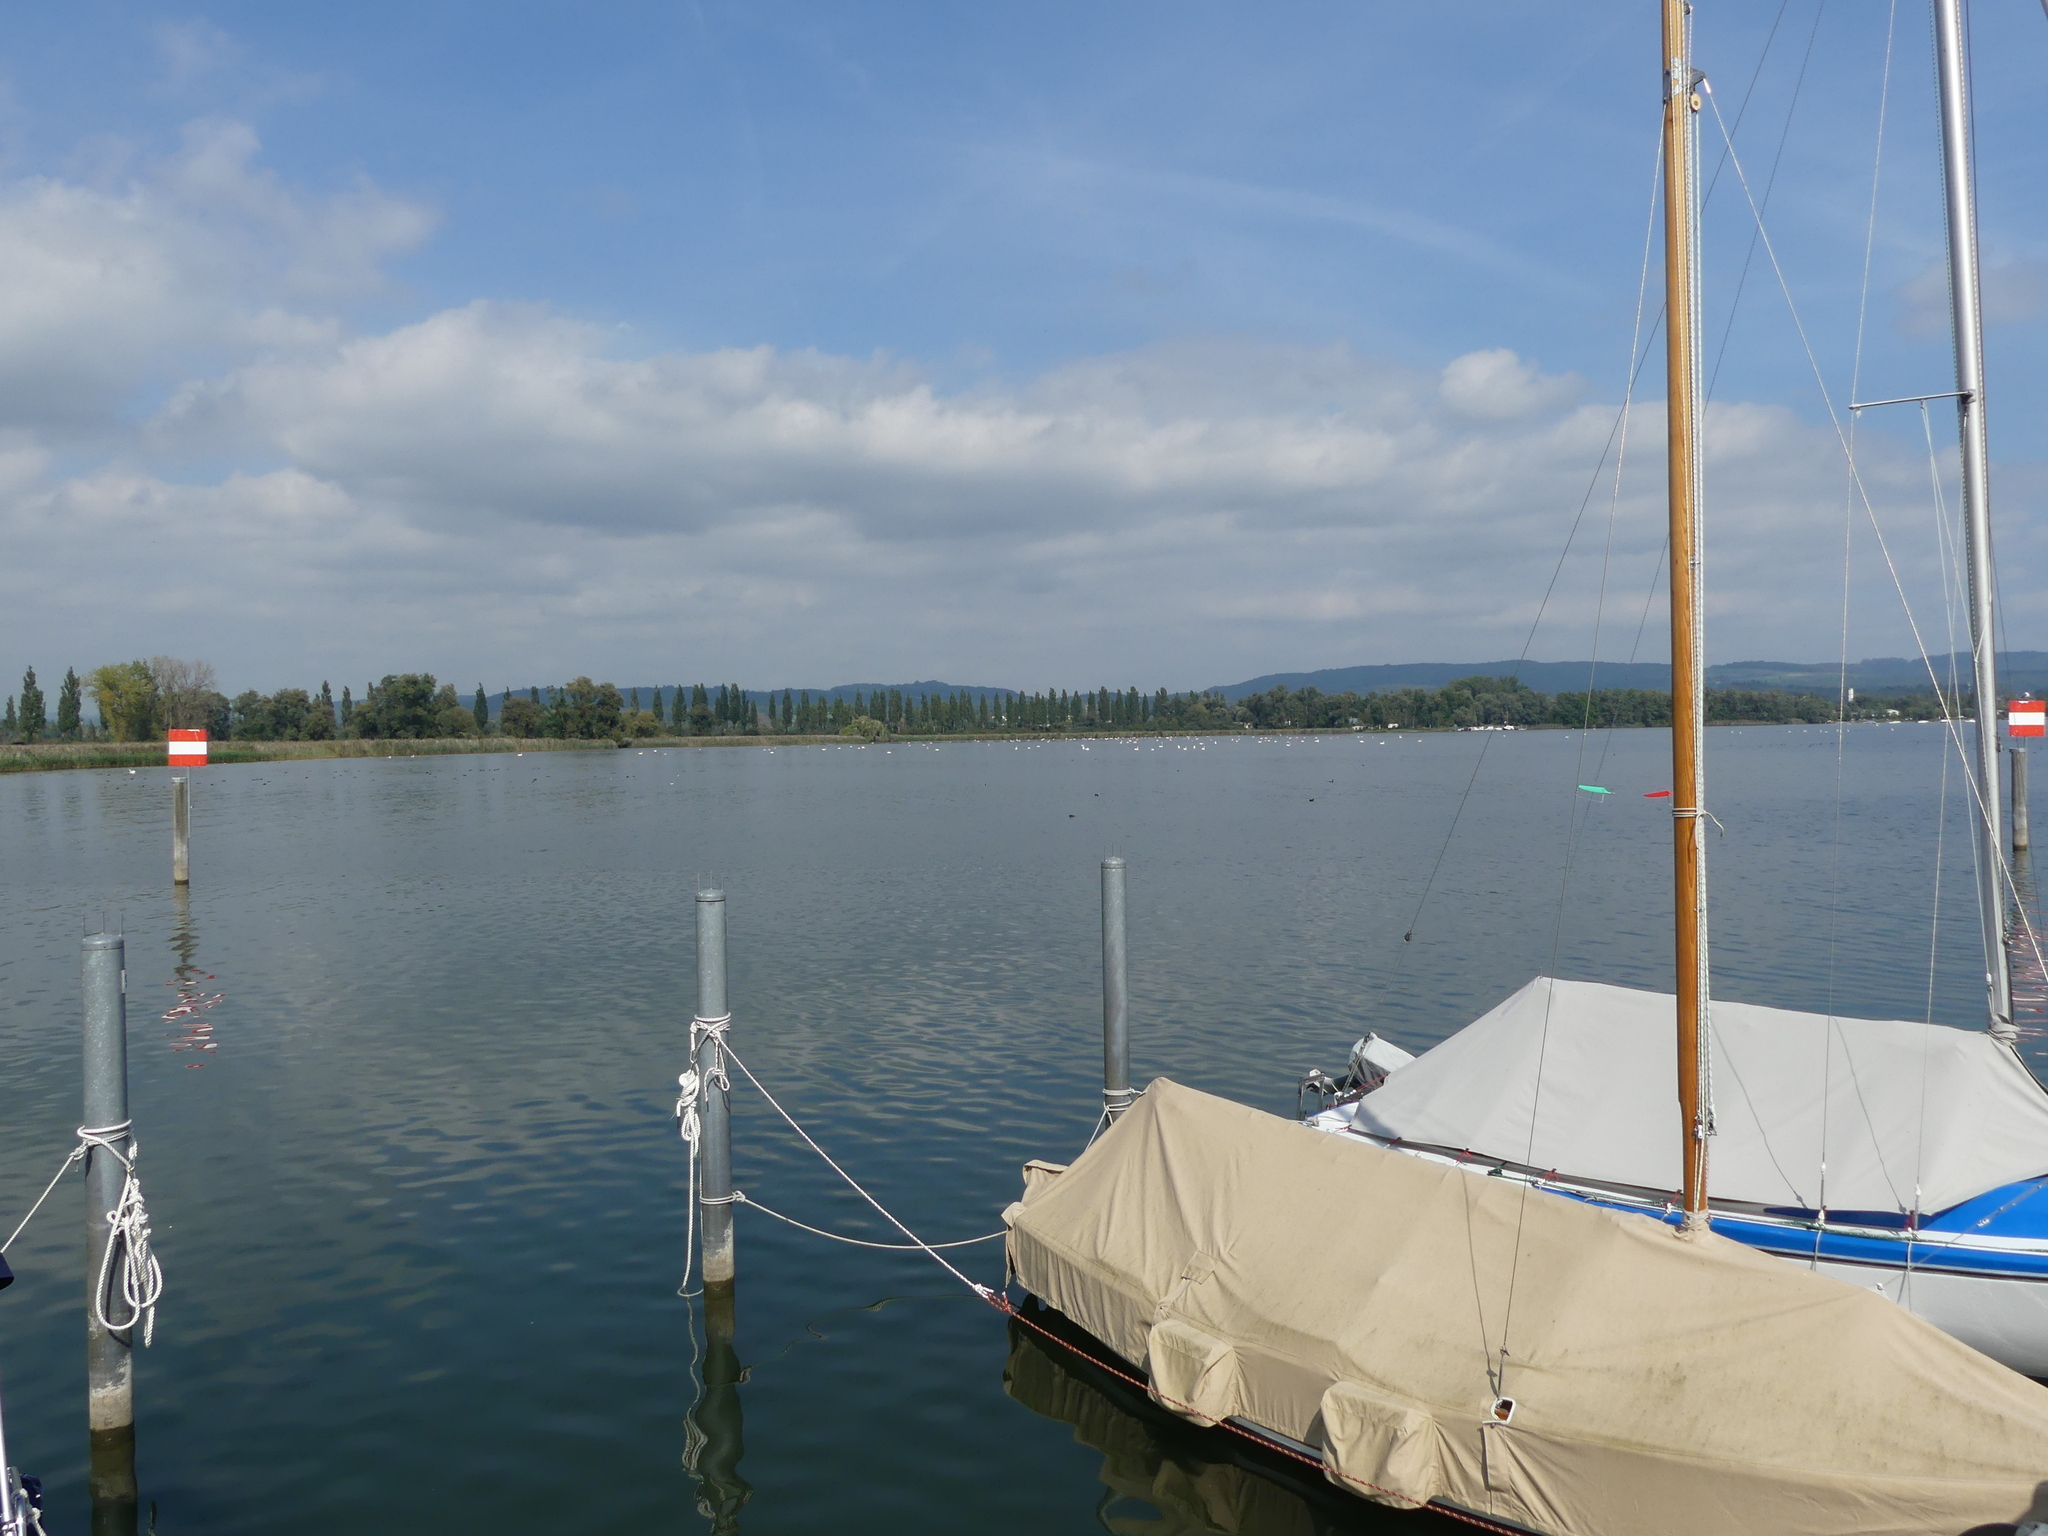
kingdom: Animalia
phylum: Chordata
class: Aves
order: Anseriformes
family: Anatidae
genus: Cygnus
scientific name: Cygnus olor
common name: Mute swan
